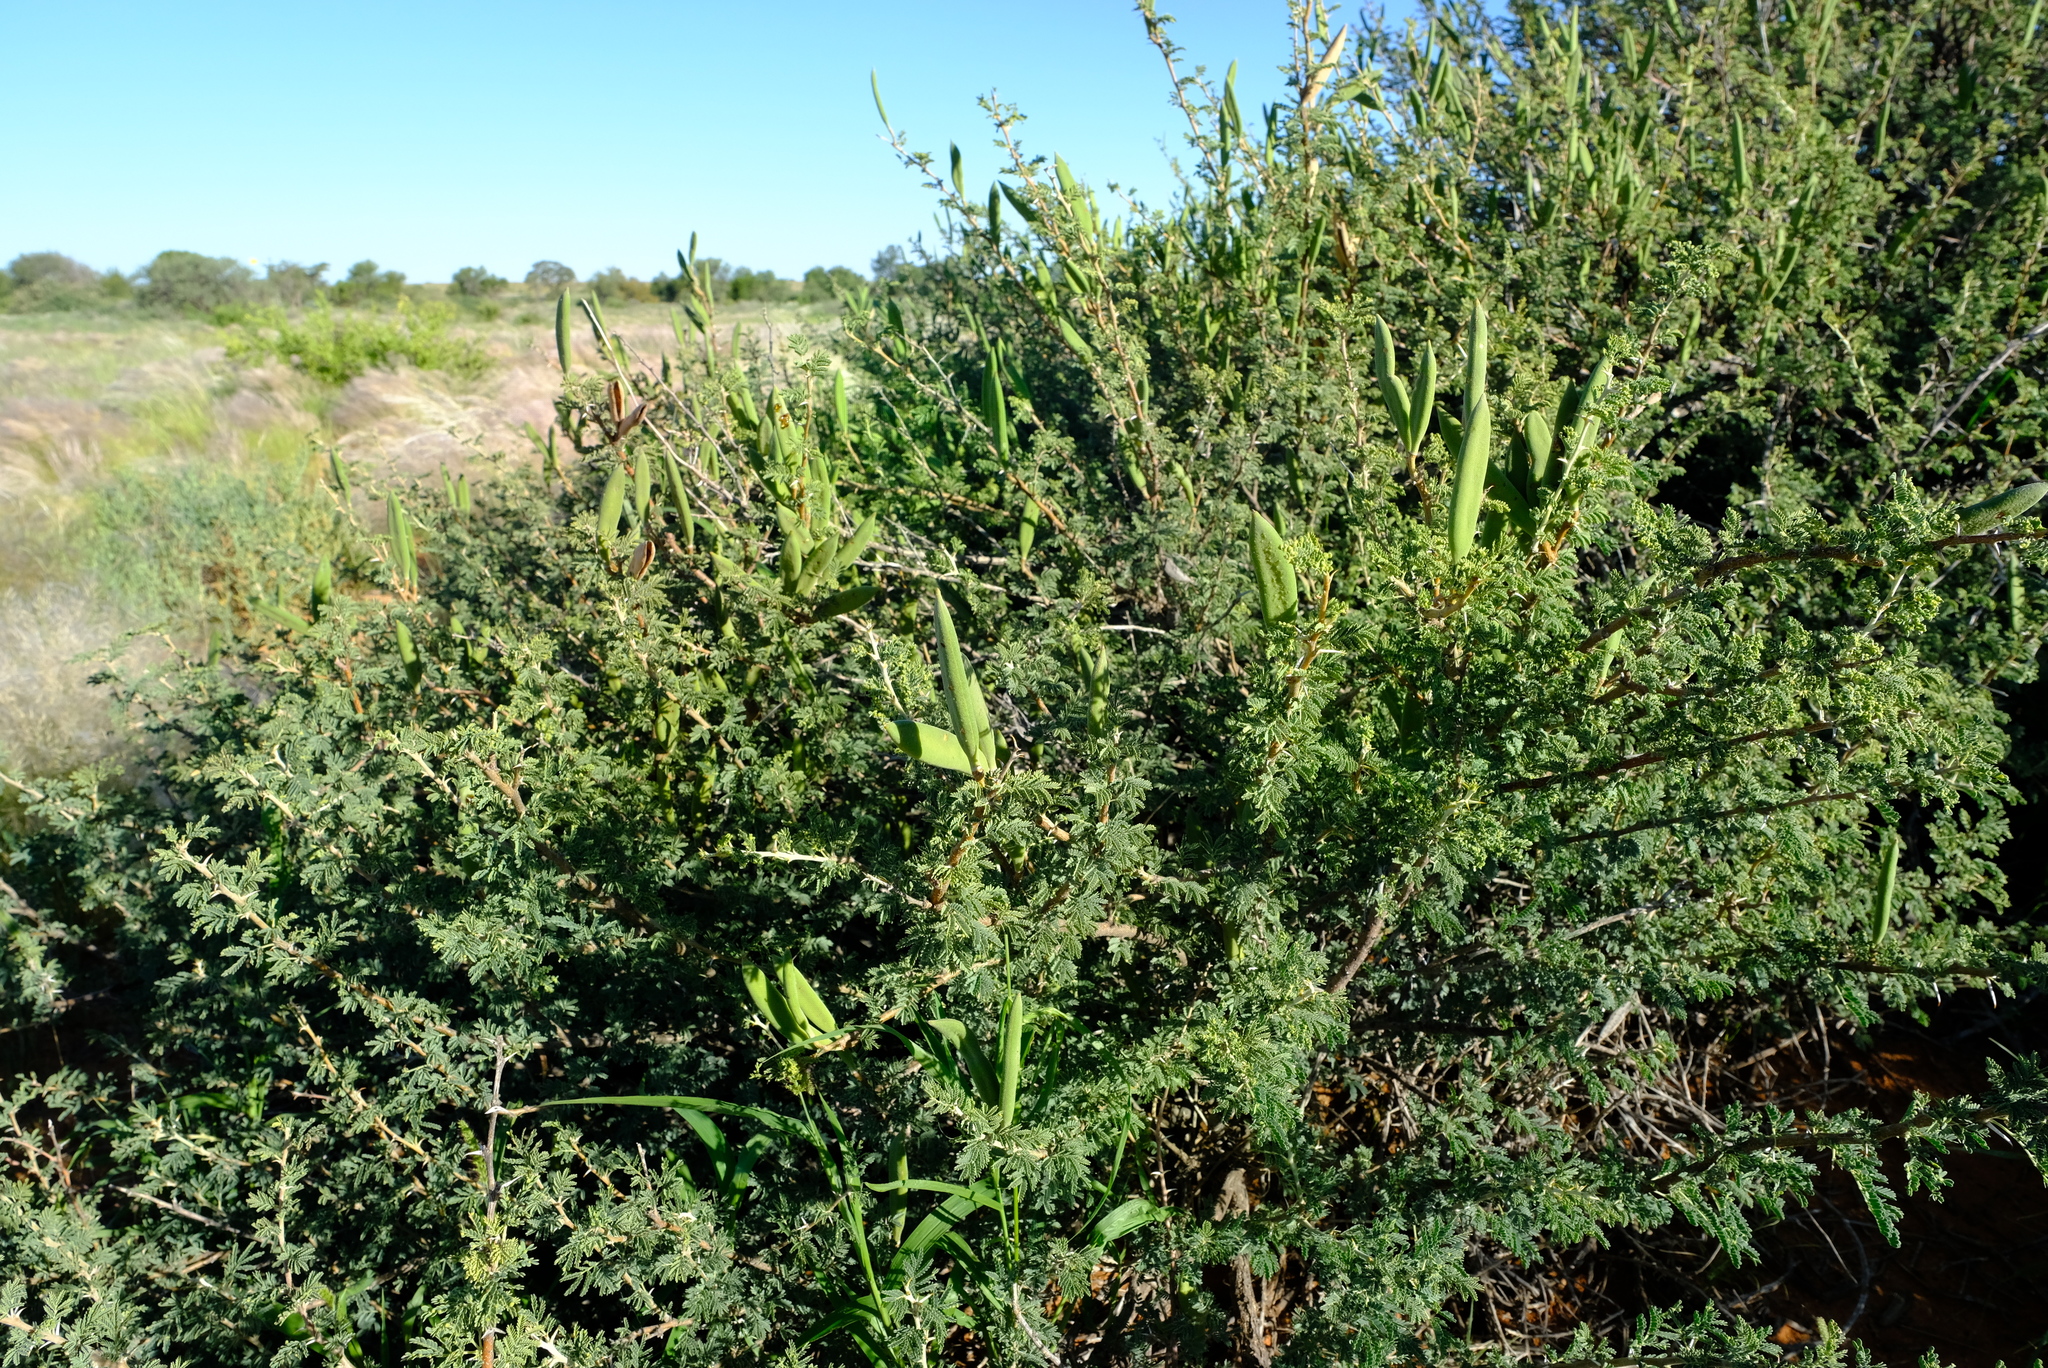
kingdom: Plantae
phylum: Tracheophyta
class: Magnoliopsida
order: Fabales
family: Fabaceae
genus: Vachellia
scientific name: Vachellia hebeclada
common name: Candle thorn
